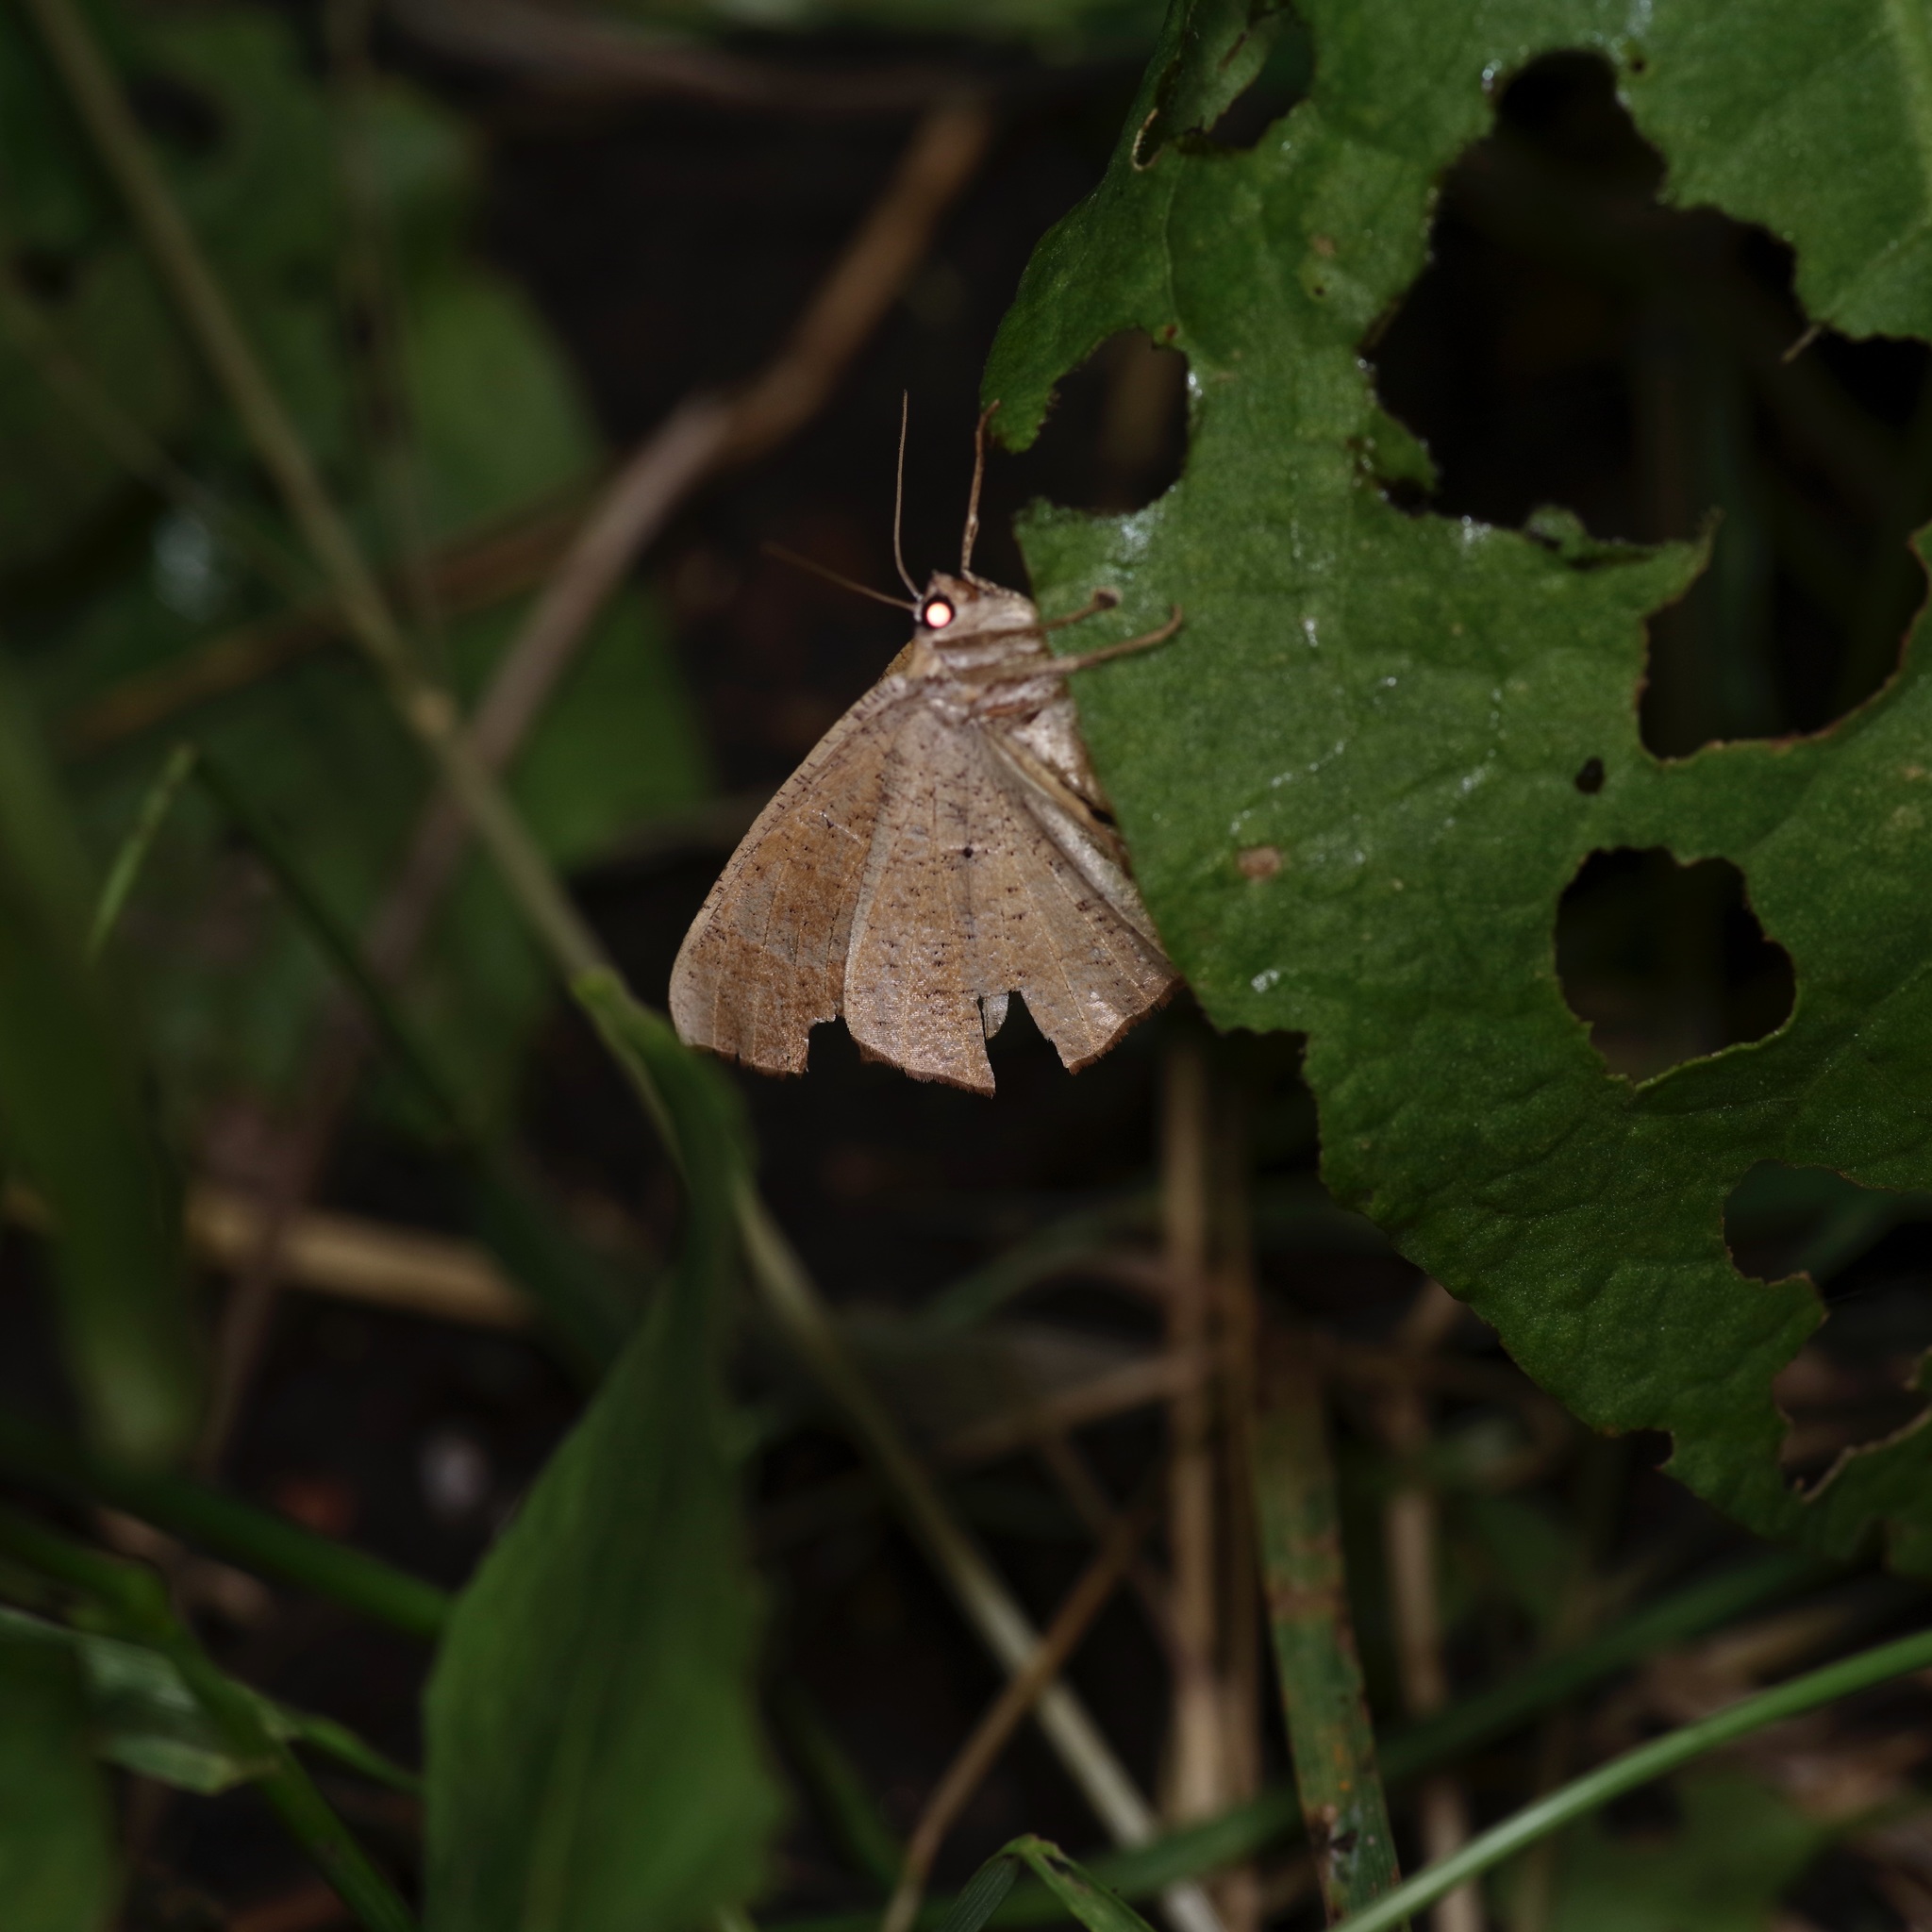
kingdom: Animalia
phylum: Arthropoda
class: Insecta
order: Lepidoptera
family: Geometridae
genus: Prochoerodes
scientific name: Prochoerodes lineola
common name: Large maple spanworm
